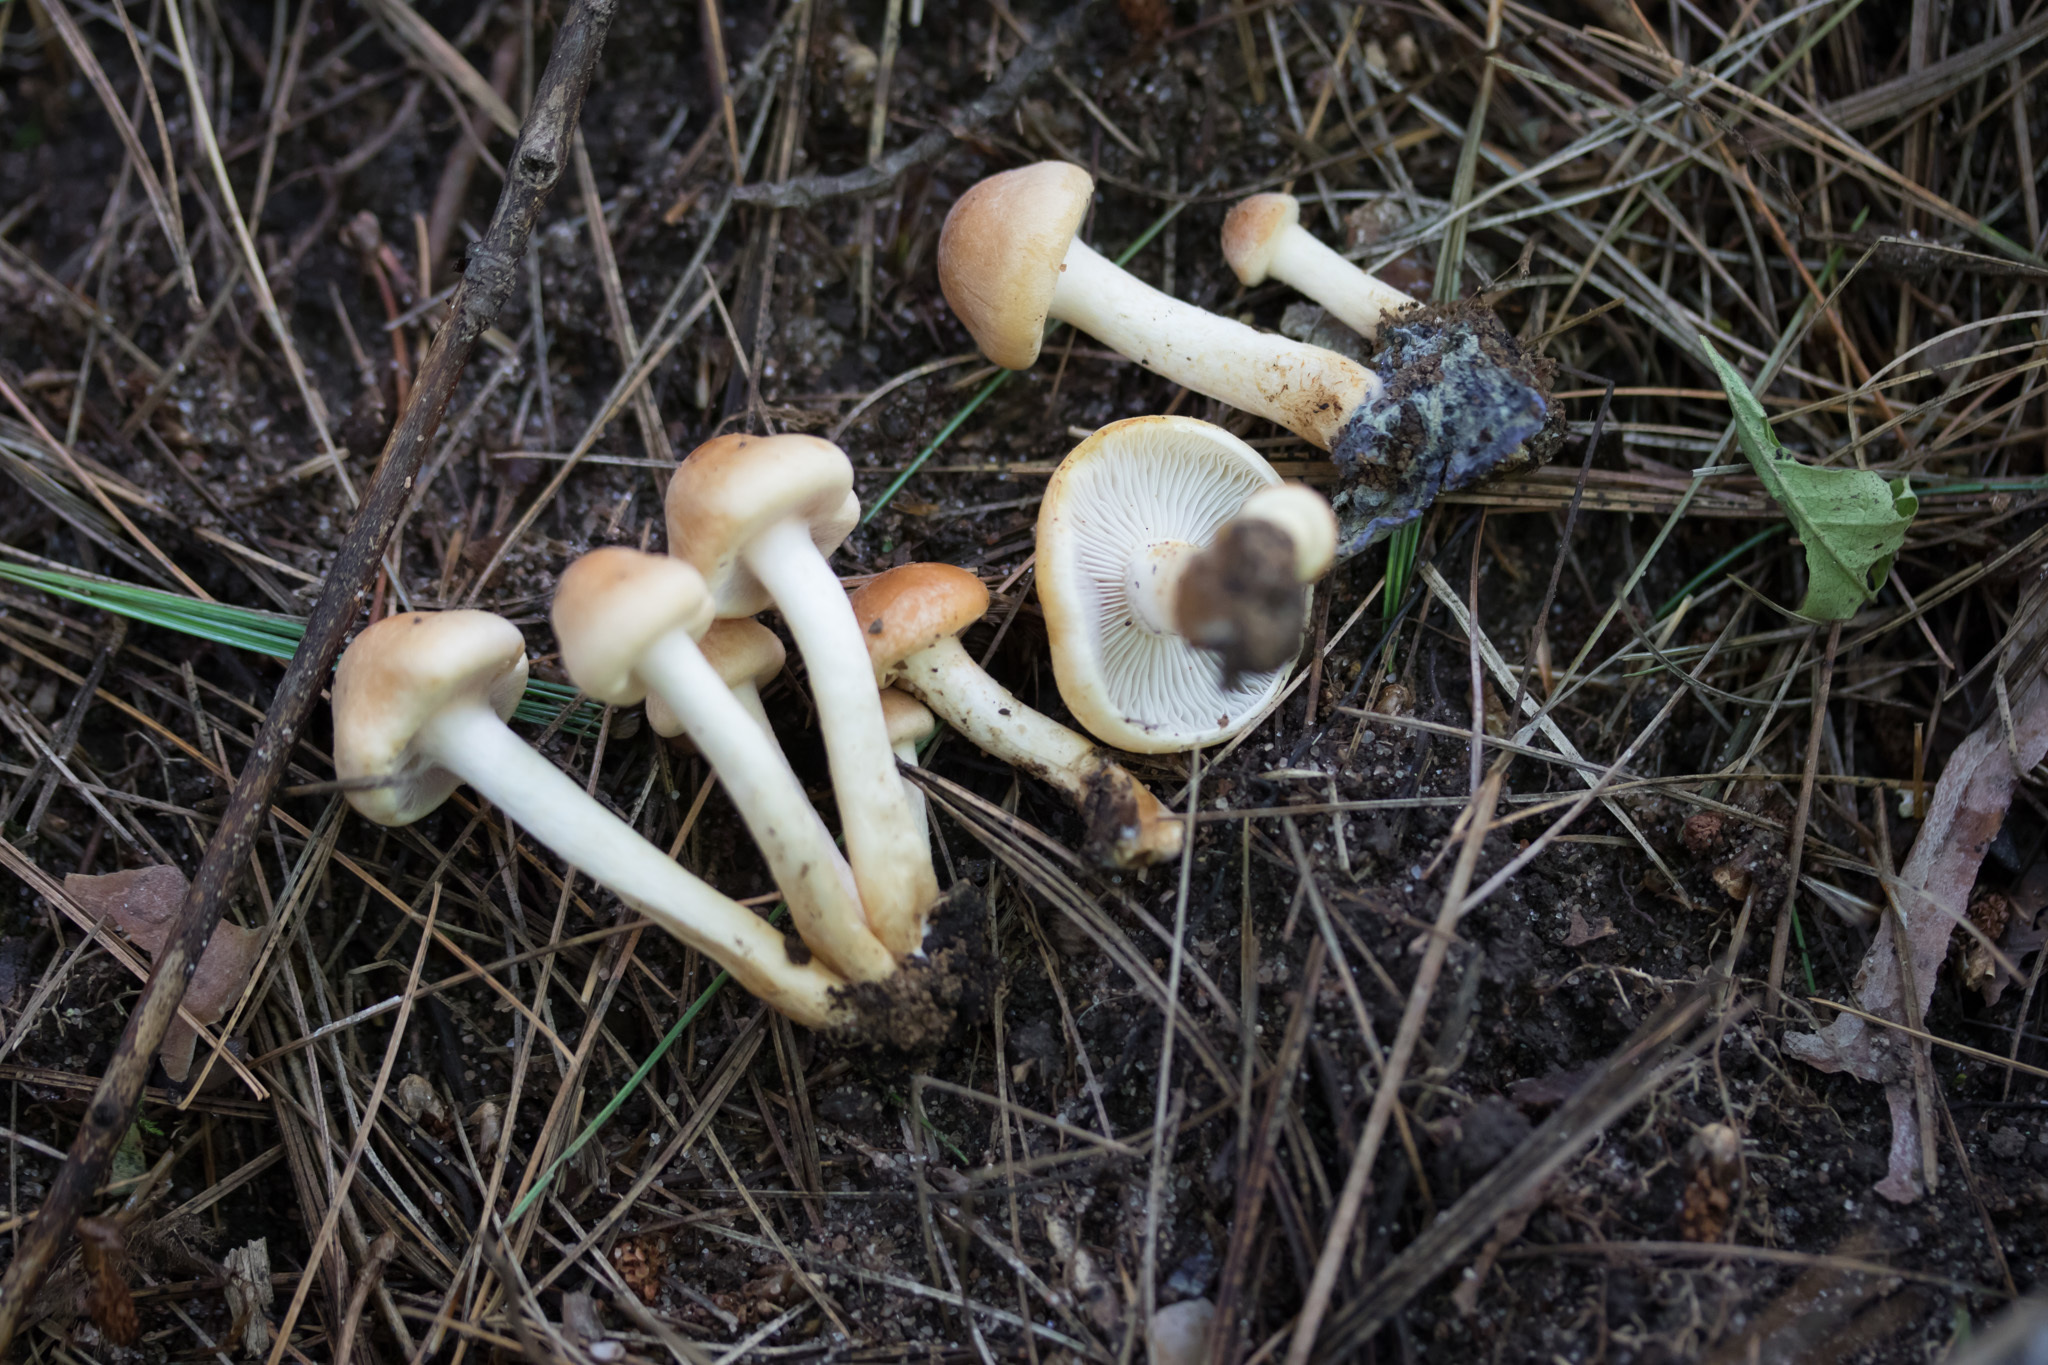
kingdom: Fungi
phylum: Basidiomycota
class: Agaricomycetes
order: Agaricales
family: Strophariaceae
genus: Hypholoma
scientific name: Hypholoma capnoides
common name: Conifer tuft
